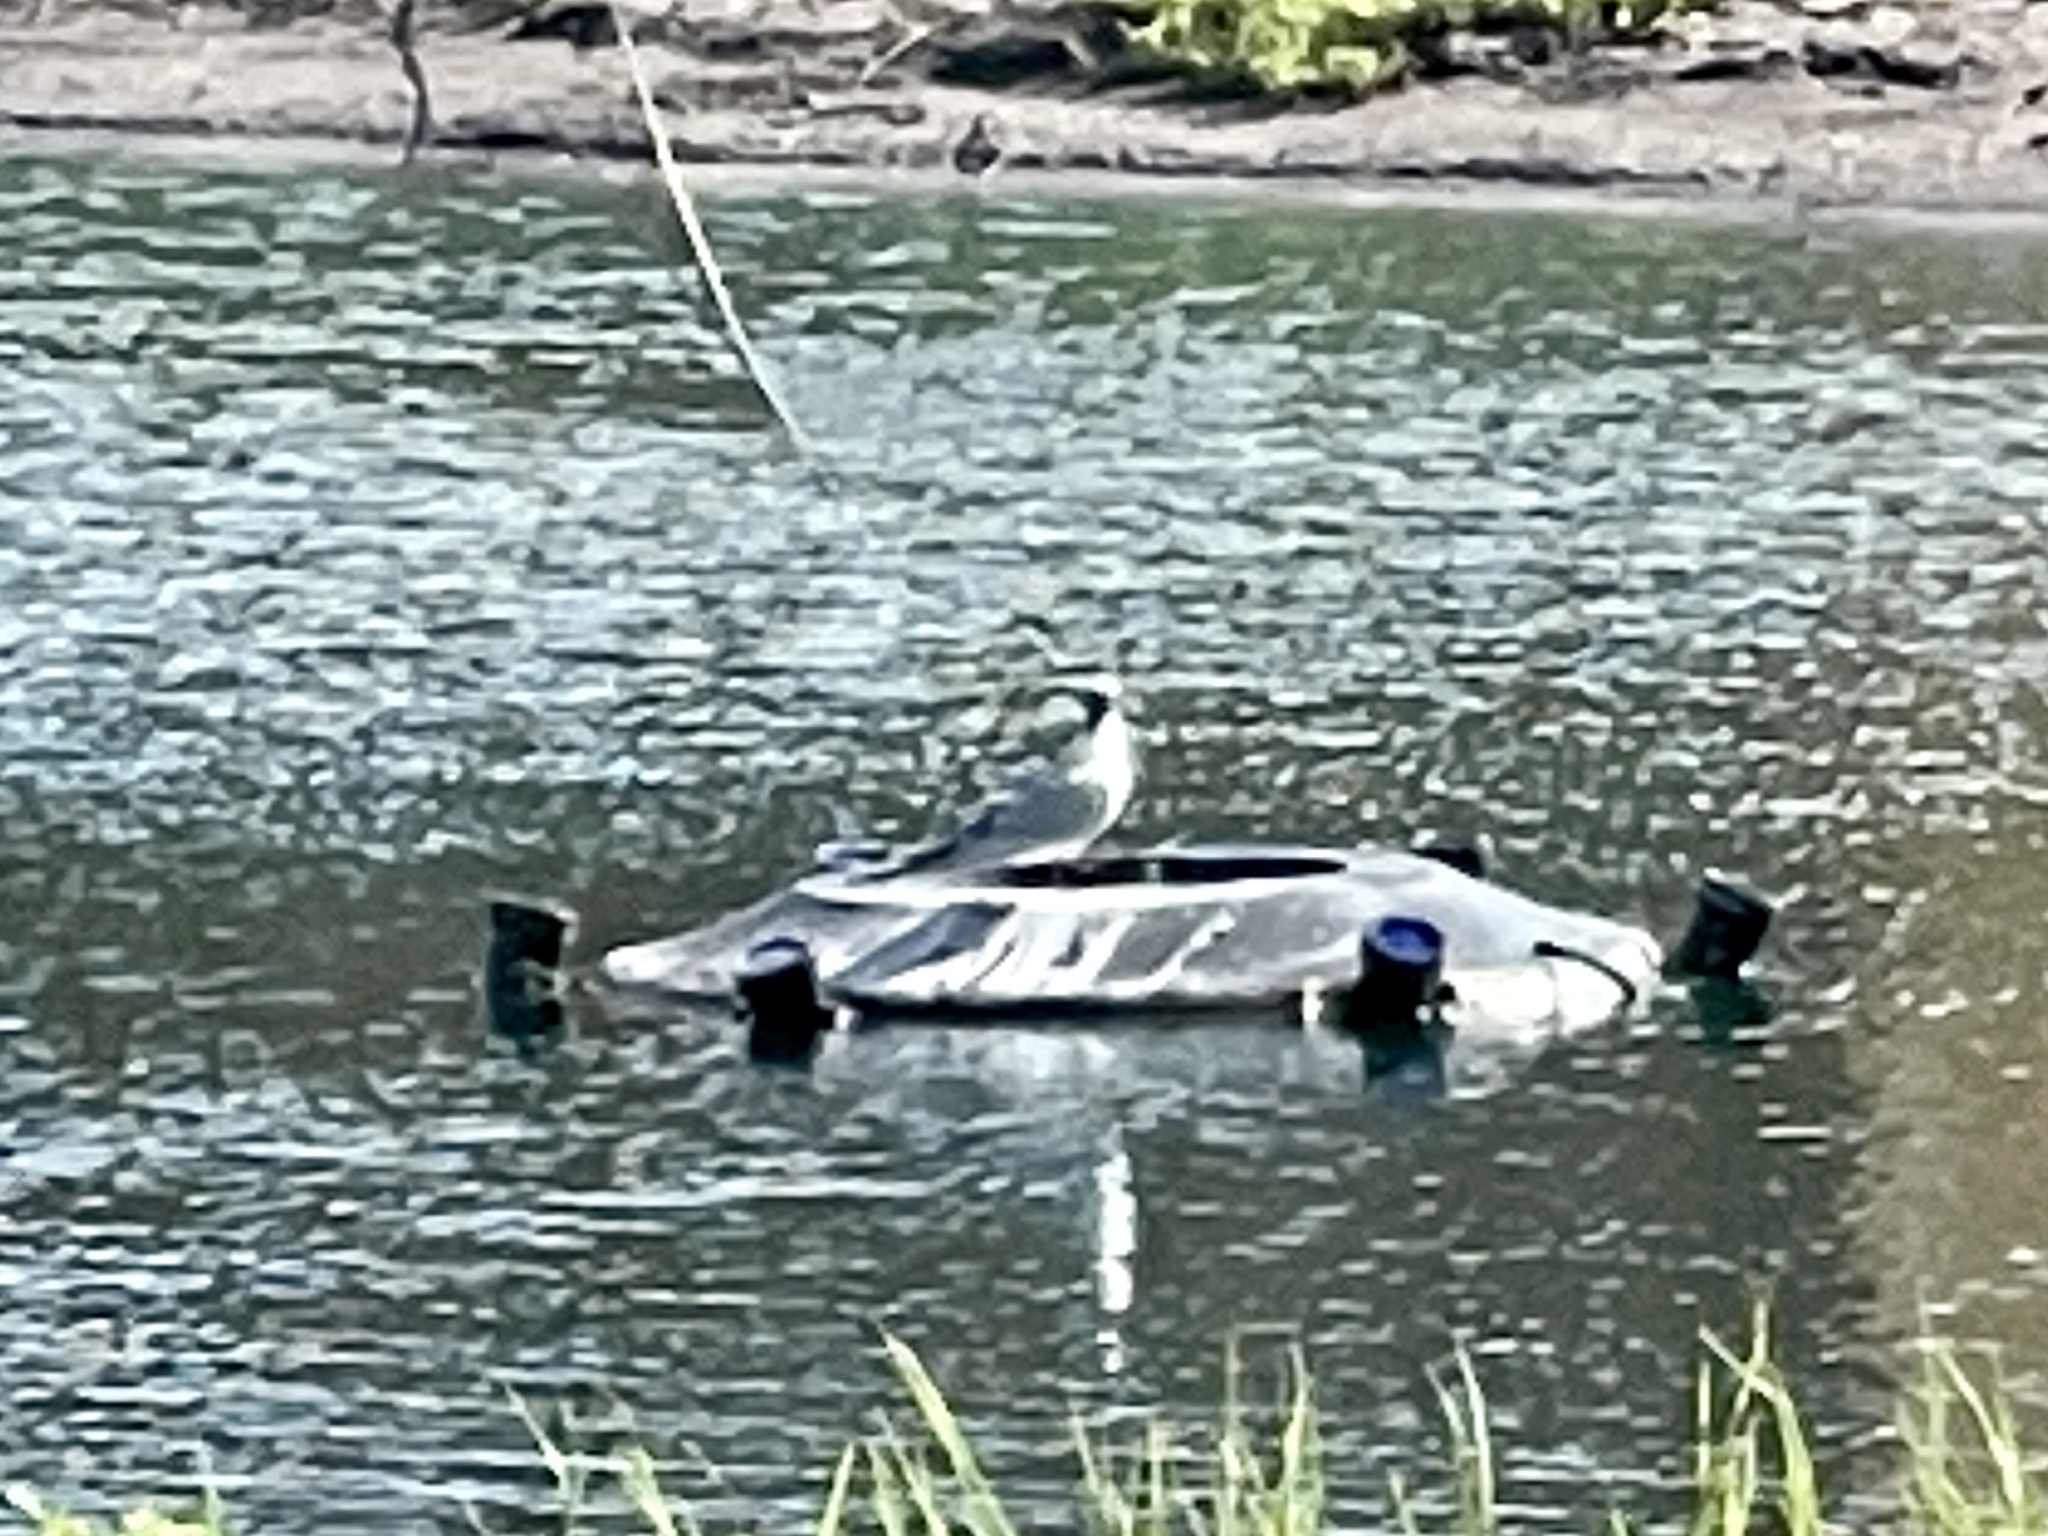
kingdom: Animalia
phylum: Chordata
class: Aves
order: Charadriiformes
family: Laridae
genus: Leucophaeus
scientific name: Leucophaeus atricilla
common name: Laughing gull
